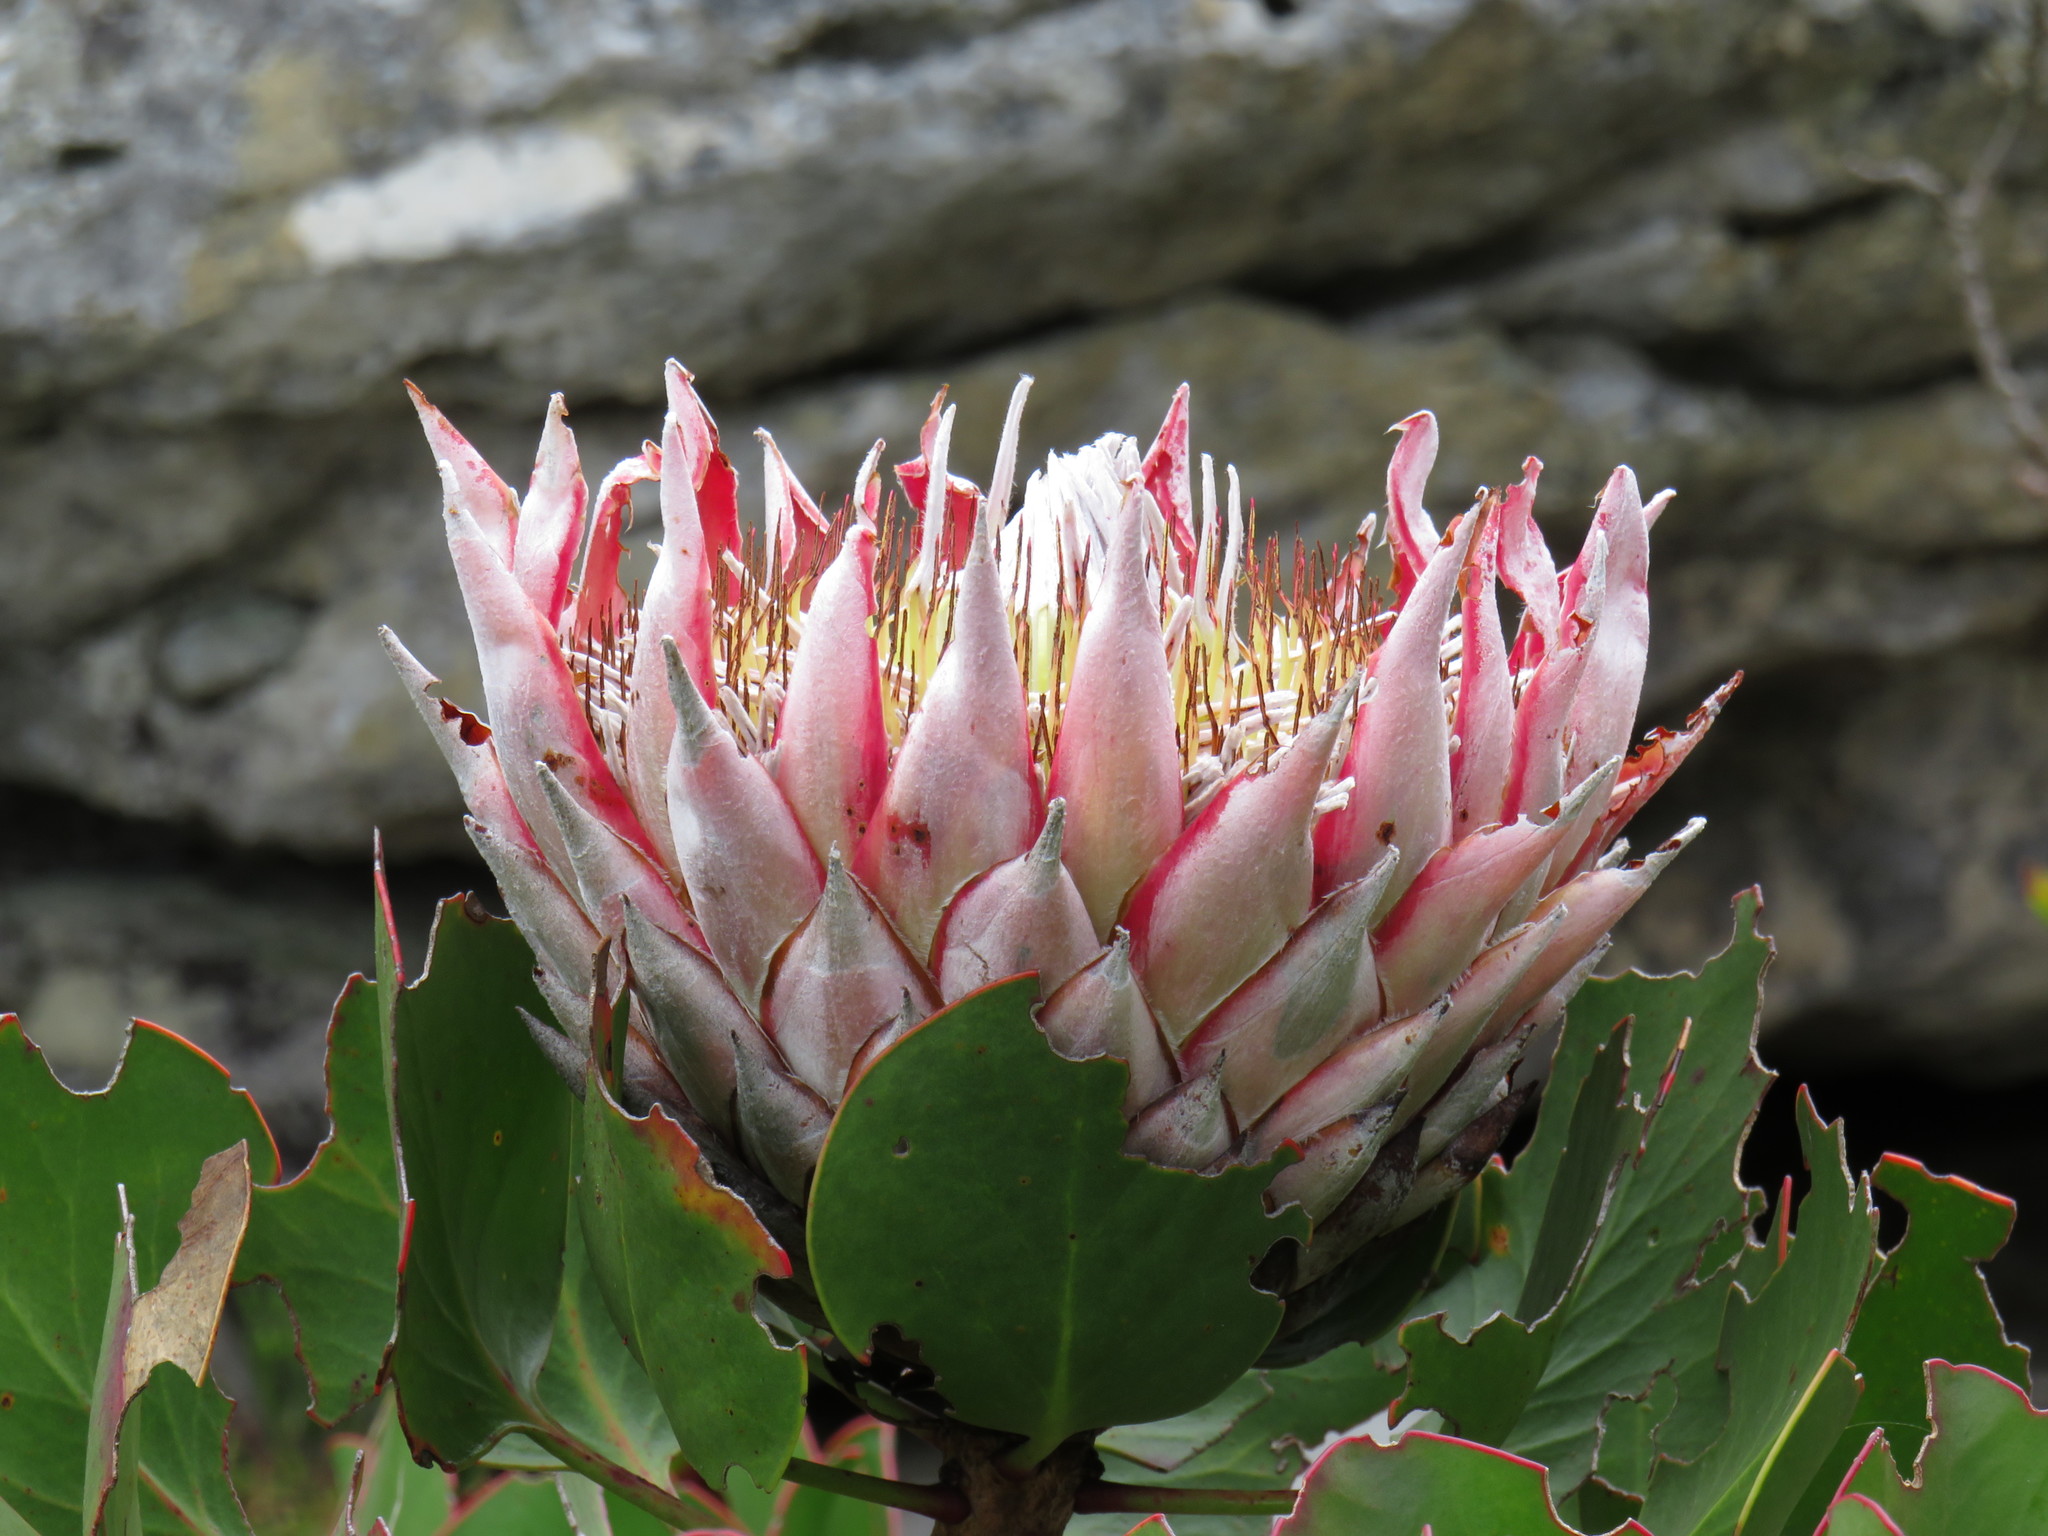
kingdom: Plantae
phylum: Tracheophyta
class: Magnoliopsida
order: Proteales
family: Proteaceae
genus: Protea
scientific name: Protea cynaroides
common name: King protea
